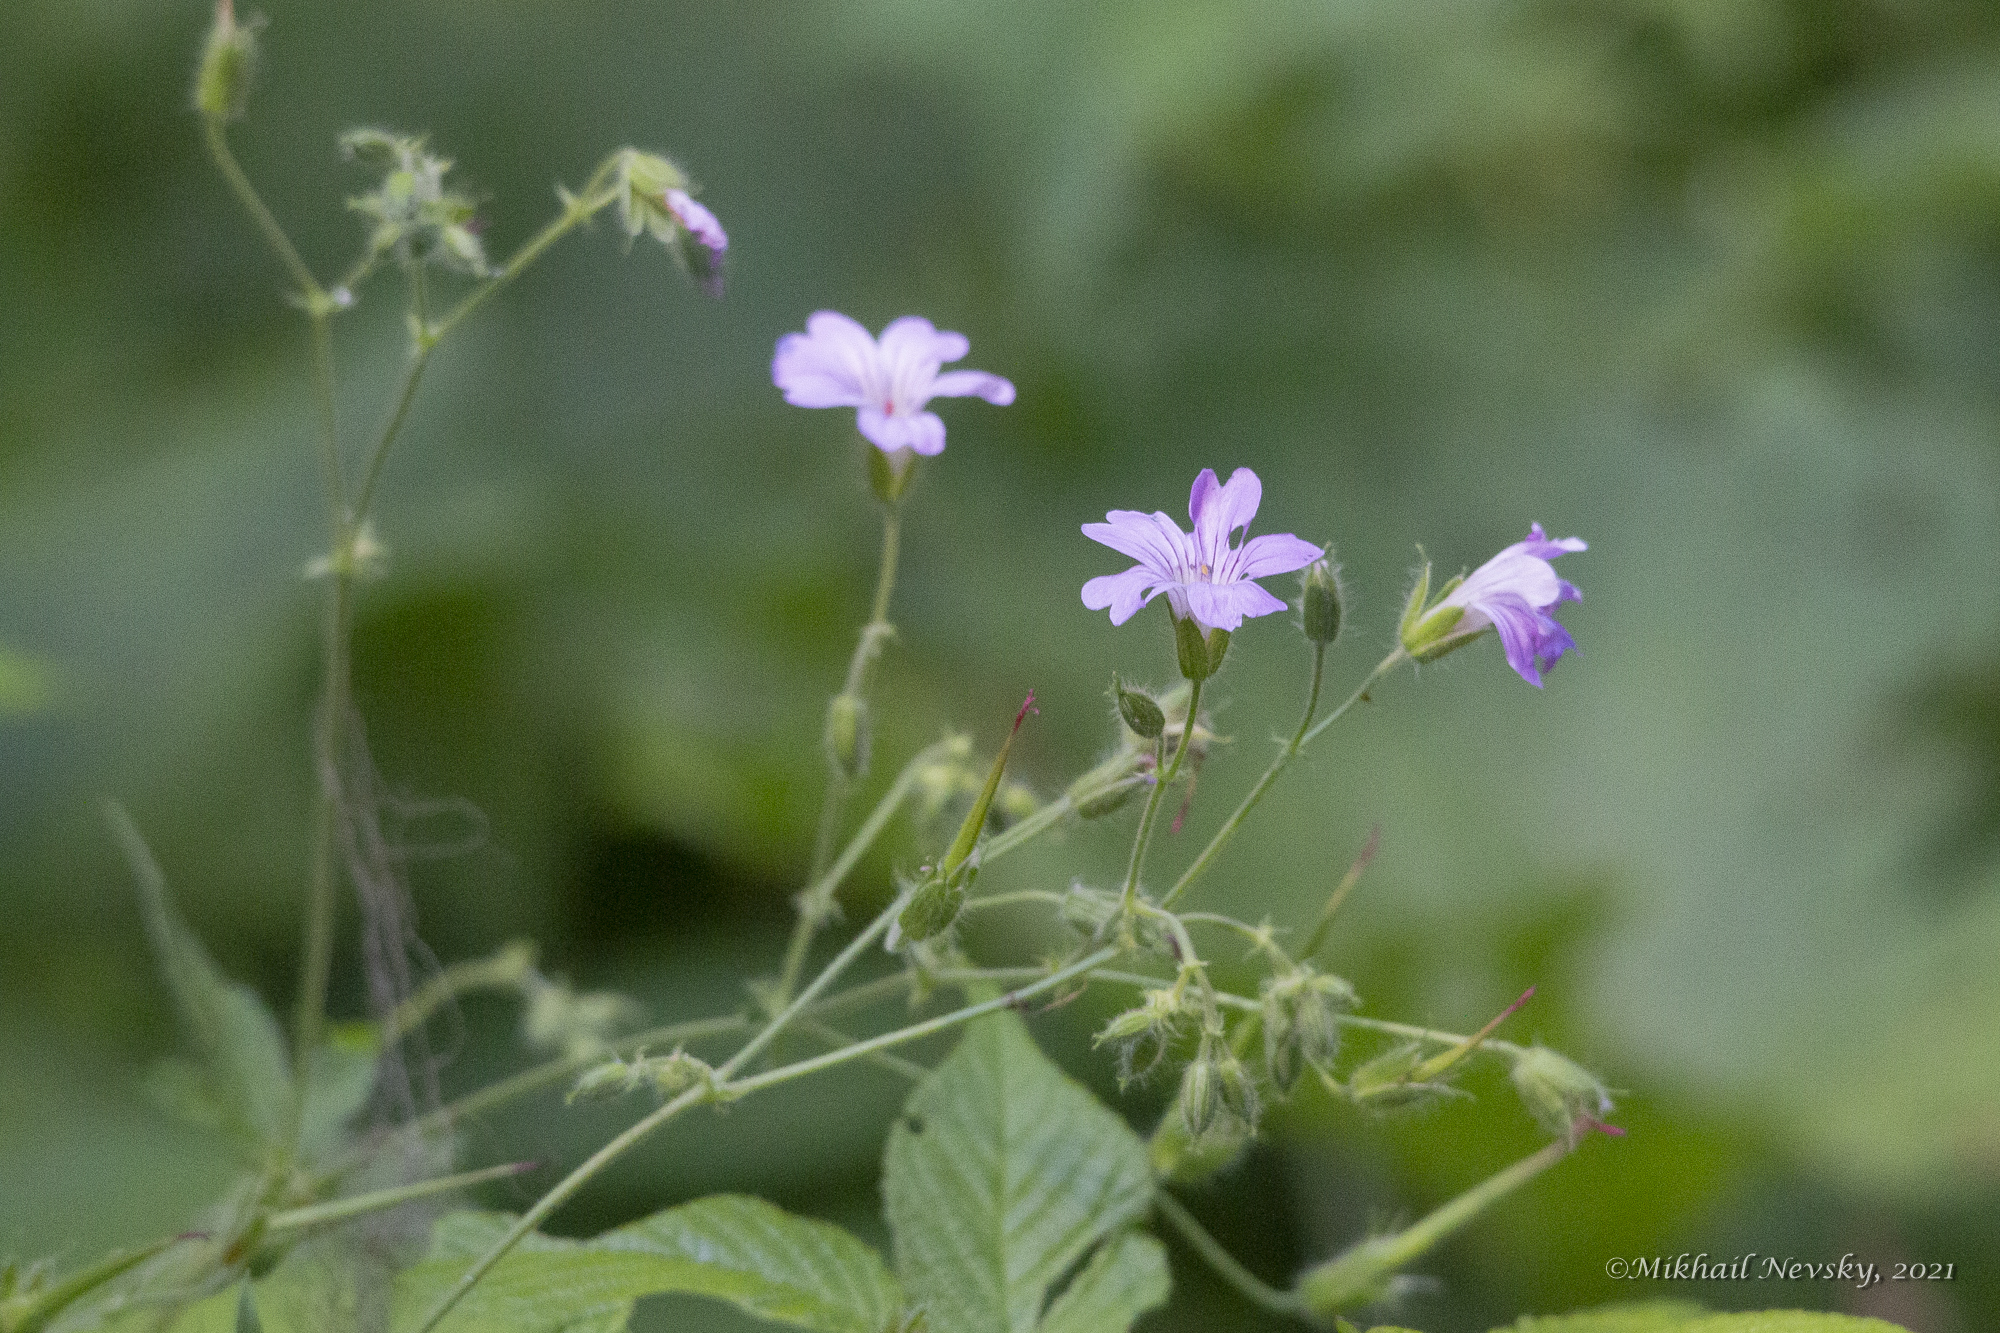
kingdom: Plantae
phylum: Tracheophyta
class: Magnoliopsida
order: Geraniales
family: Geraniaceae
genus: Geranium
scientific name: Geranium gracile
